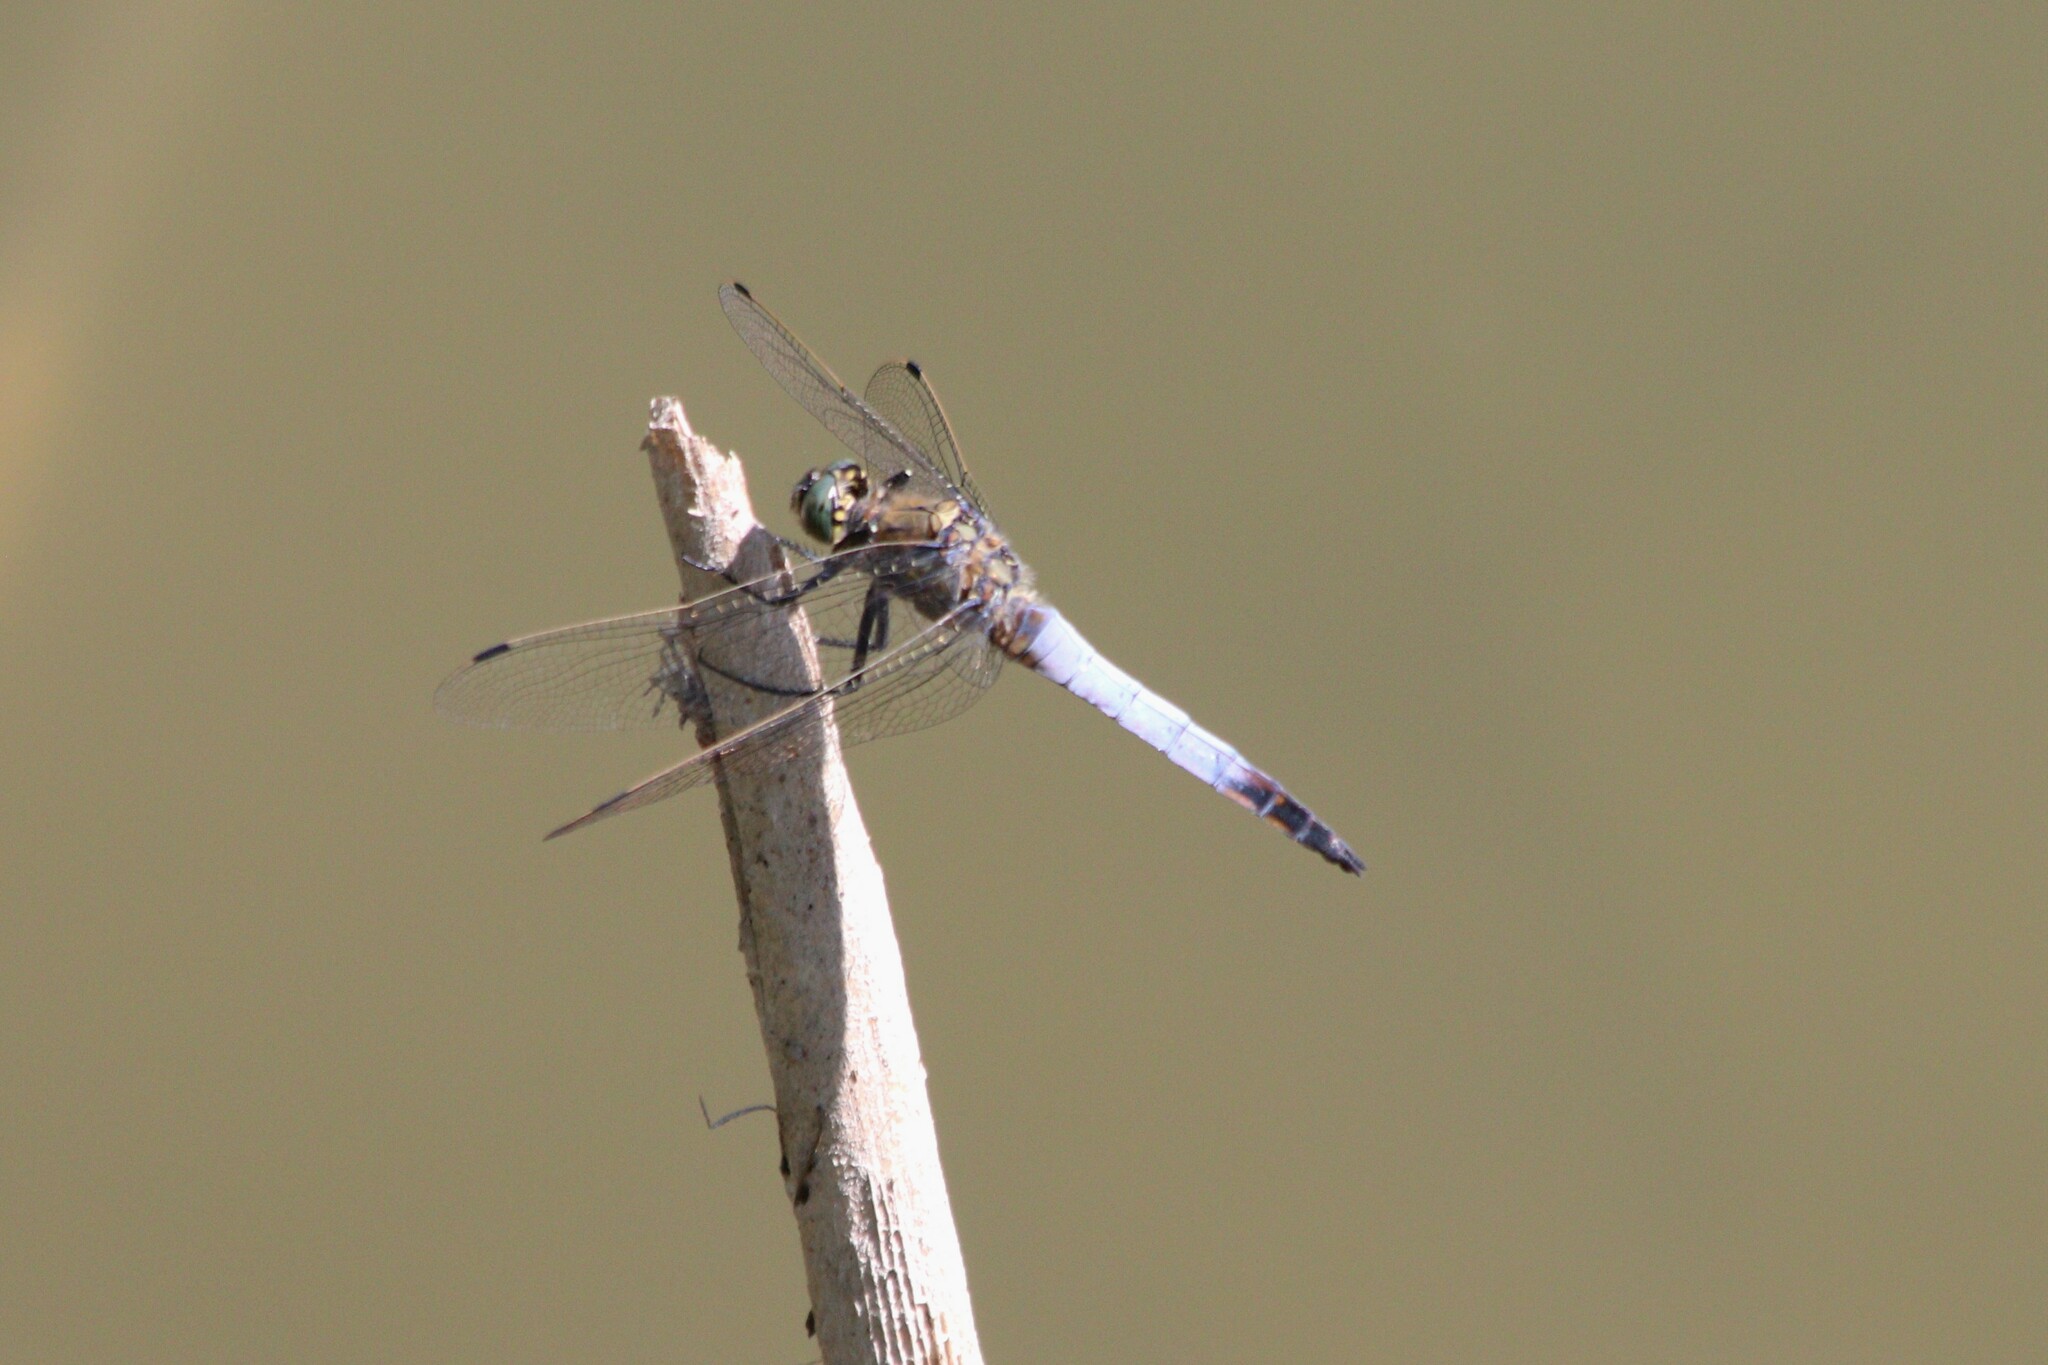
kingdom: Animalia
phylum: Arthropoda
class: Insecta
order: Odonata
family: Libellulidae
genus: Orthetrum
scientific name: Orthetrum cancellatum
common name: Black-tailed skimmer
